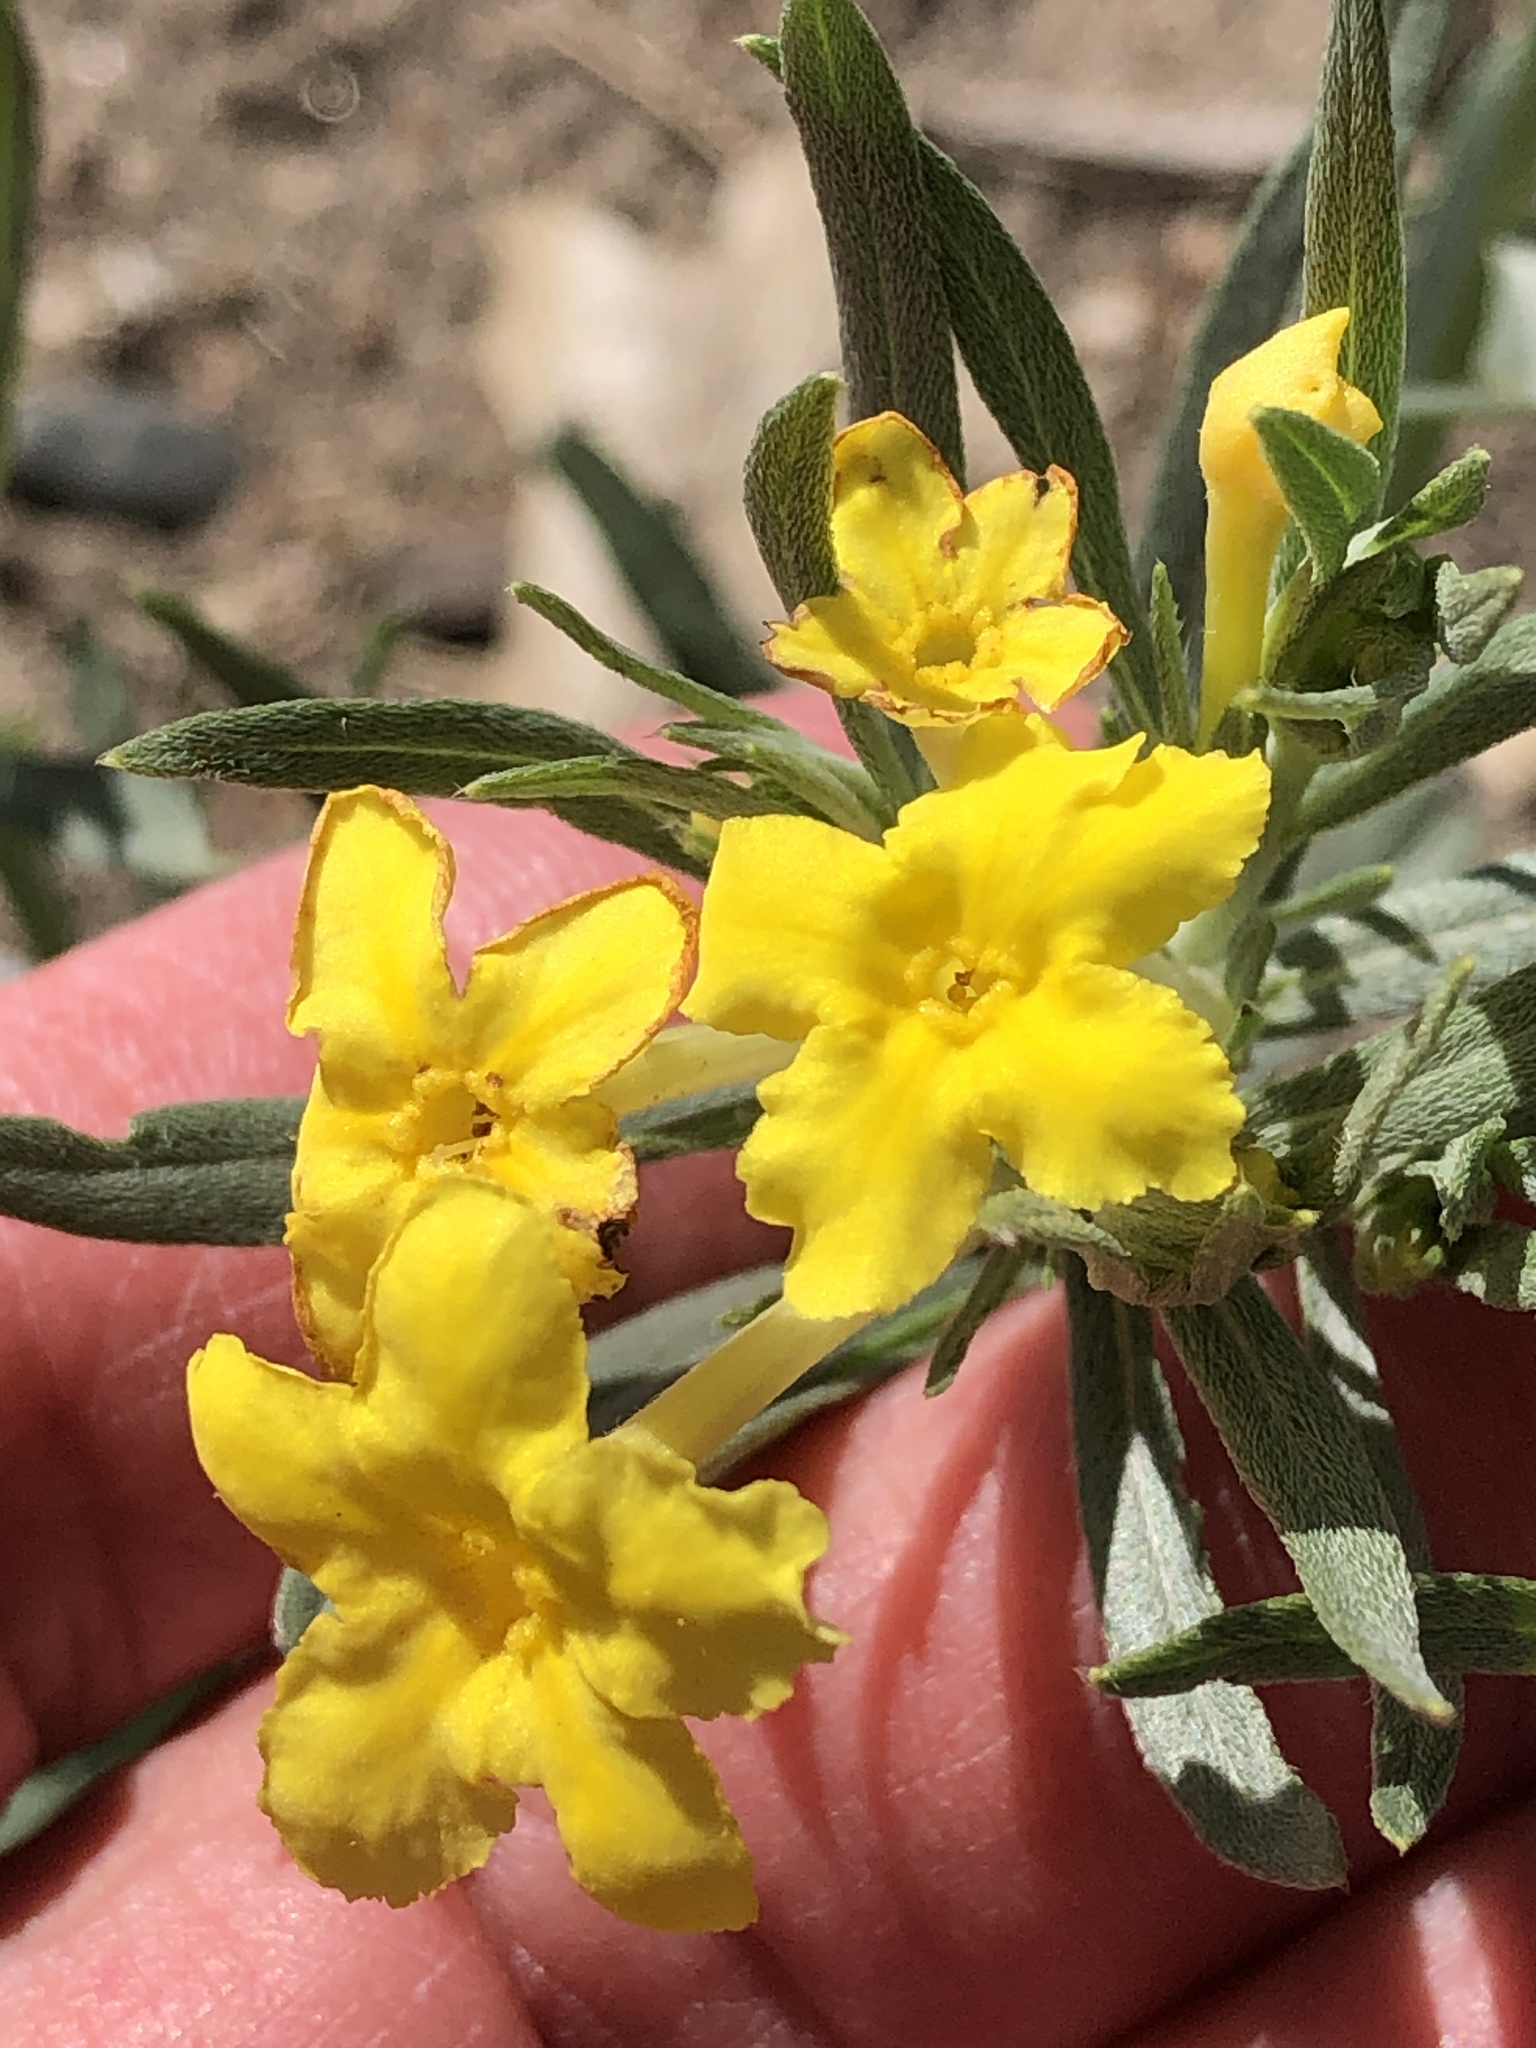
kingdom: Plantae
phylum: Tracheophyta
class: Magnoliopsida
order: Boraginales
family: Boraginaceae
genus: Lithospermum
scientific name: Lithospermum incisum
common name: Fringed gromwell
